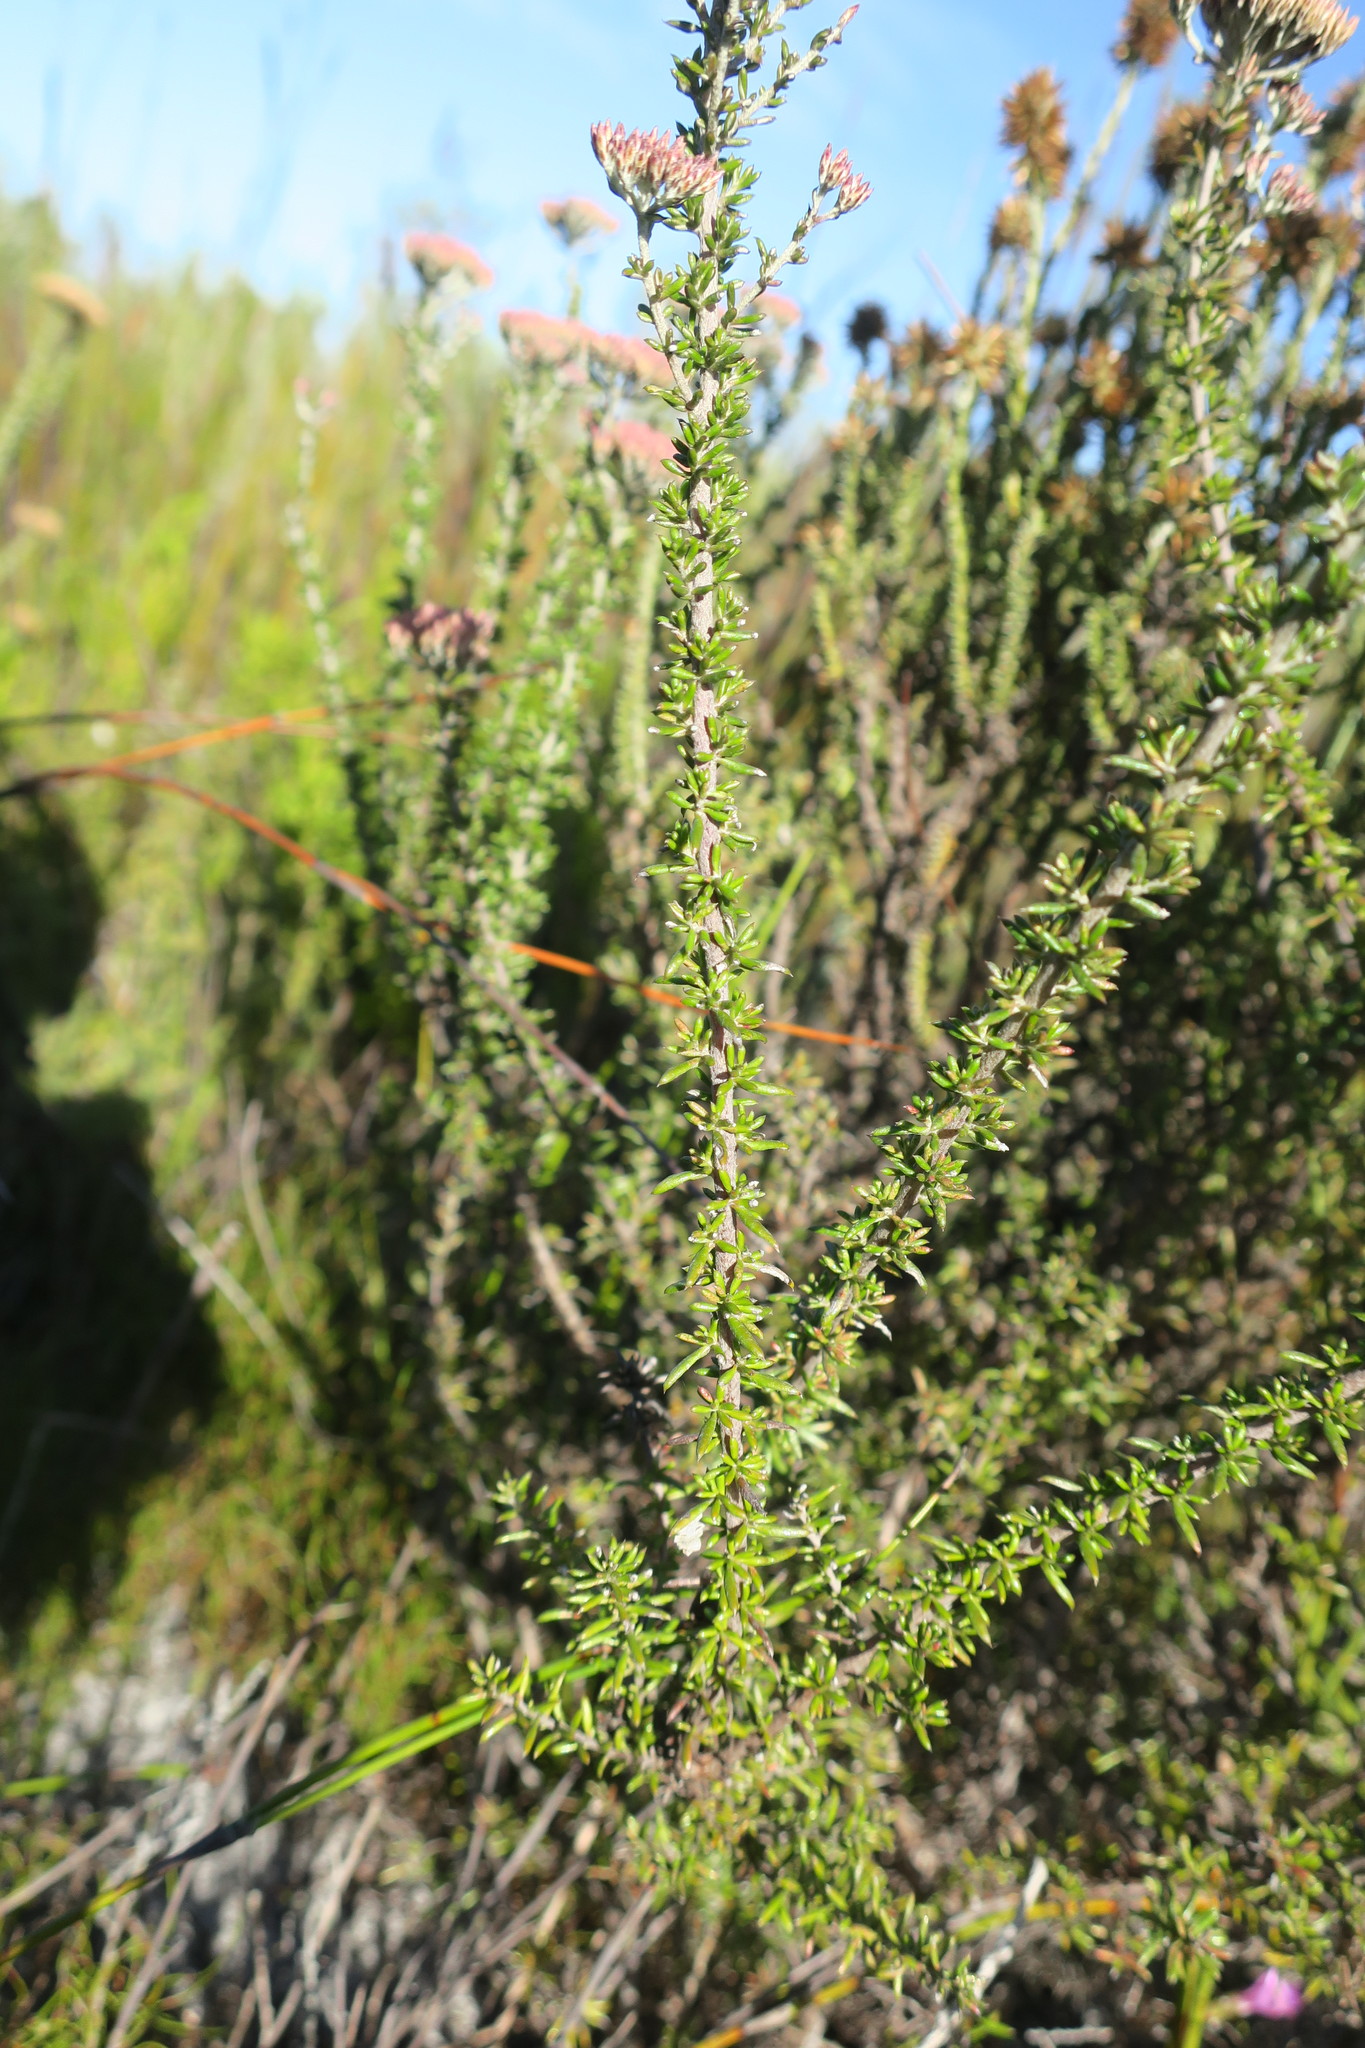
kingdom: Plantae
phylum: Tracheophyta
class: Magnoliopsida
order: Asterales
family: Asteraceae
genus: Metalasia
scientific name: Metalasia densa
